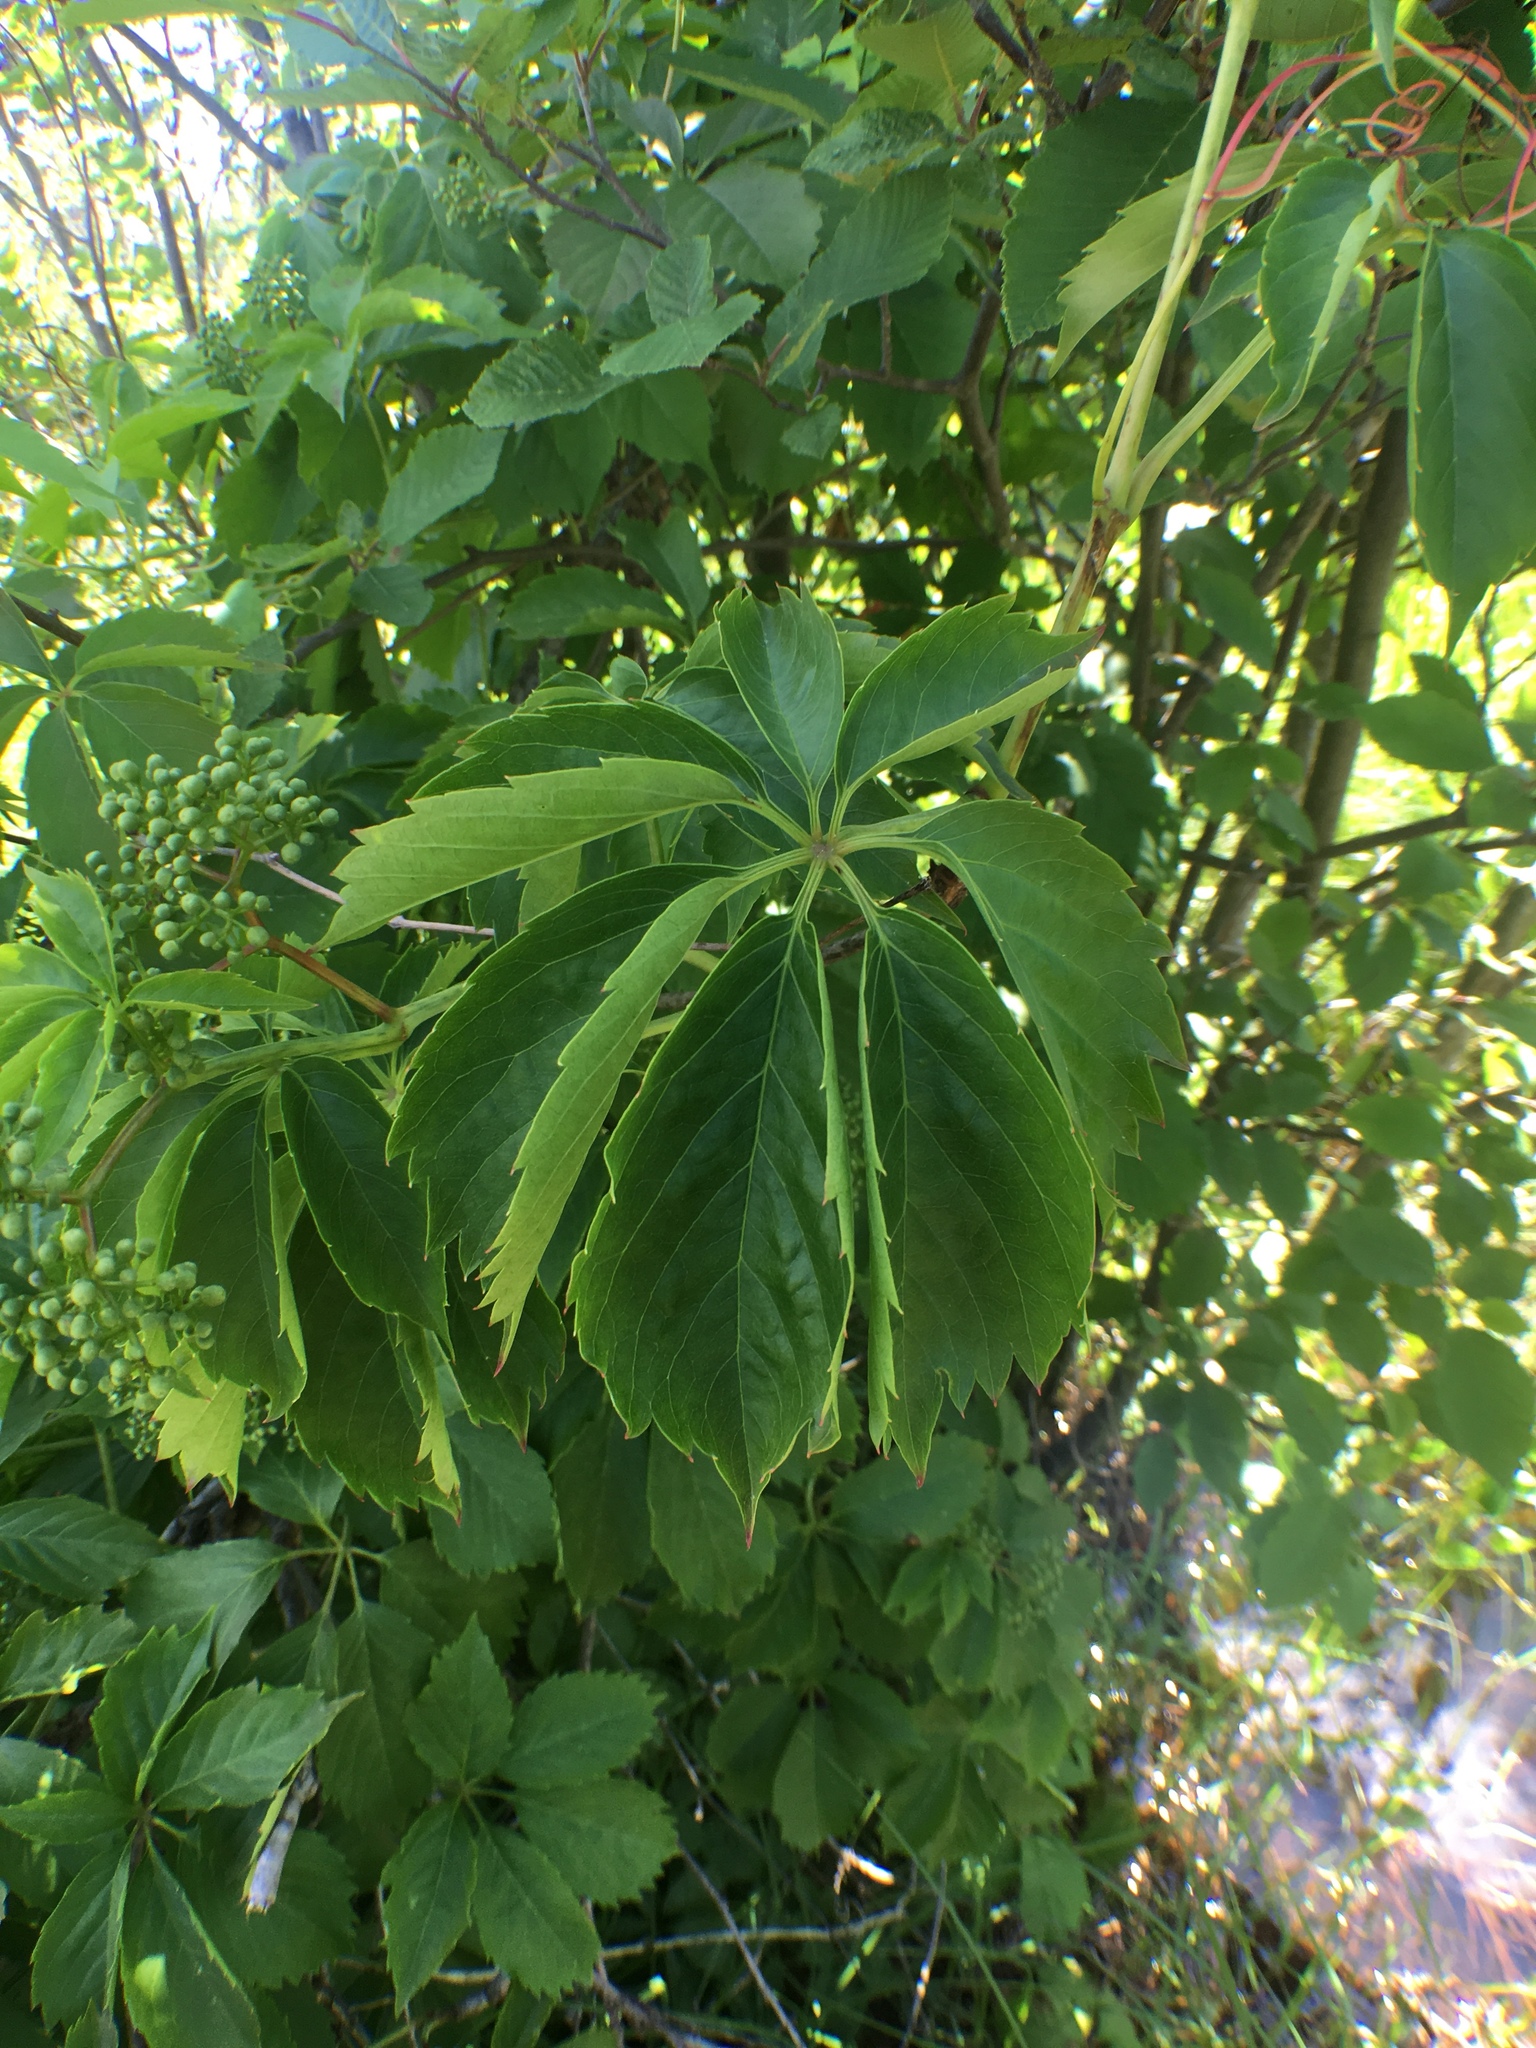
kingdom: Plantae
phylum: Tracheophyta
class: Magnoliopsida
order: Vitales
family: Vitaceae
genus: Parthenocissus
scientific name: Parthenocissus quinquefolia
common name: Virginia-creeper
